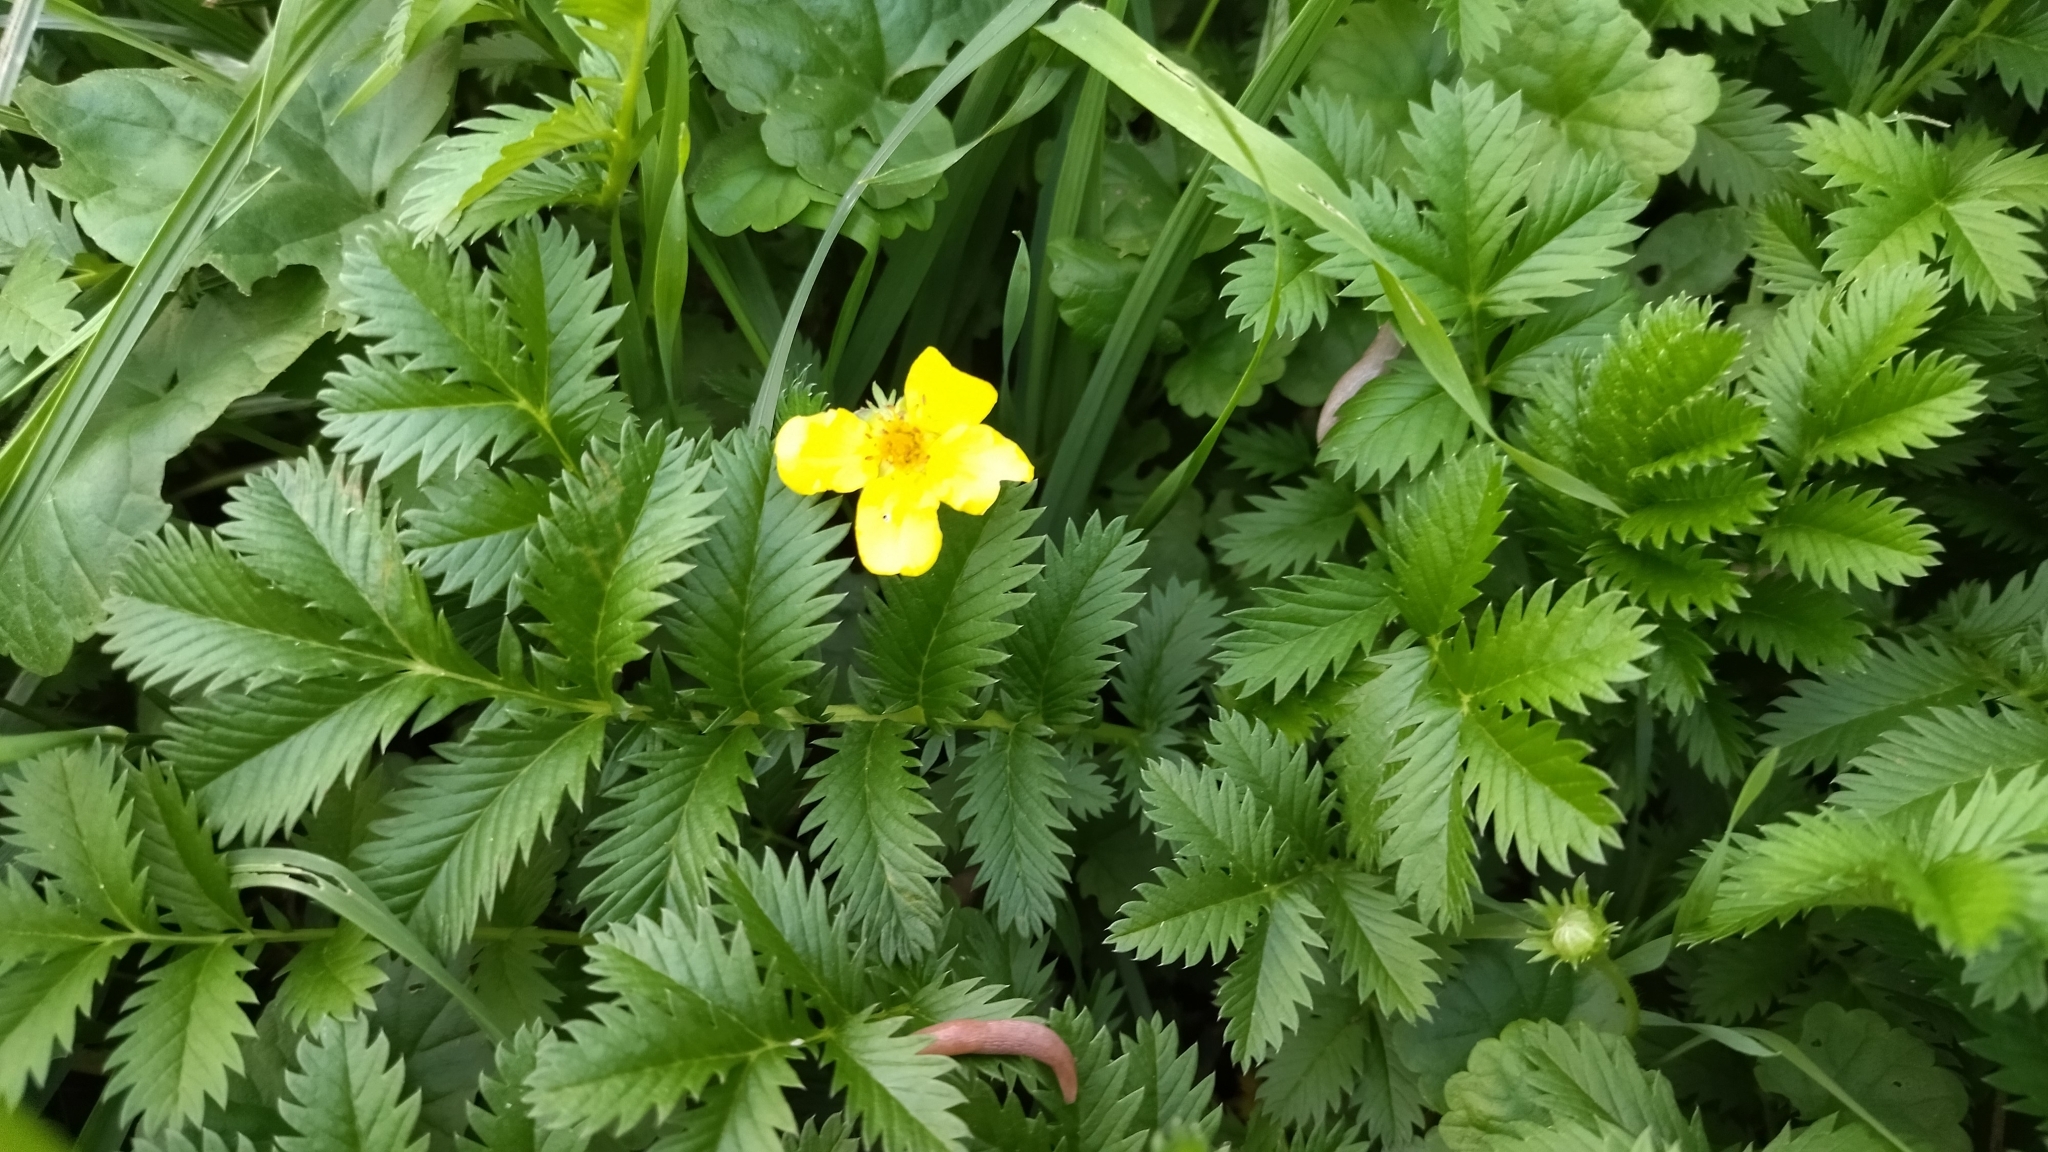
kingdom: Plantae
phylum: Tracheophyta
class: Magnoliopsida
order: Rosales
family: Rosaceae
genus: Argentina
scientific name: Argentina anserina
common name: Common silverweed
